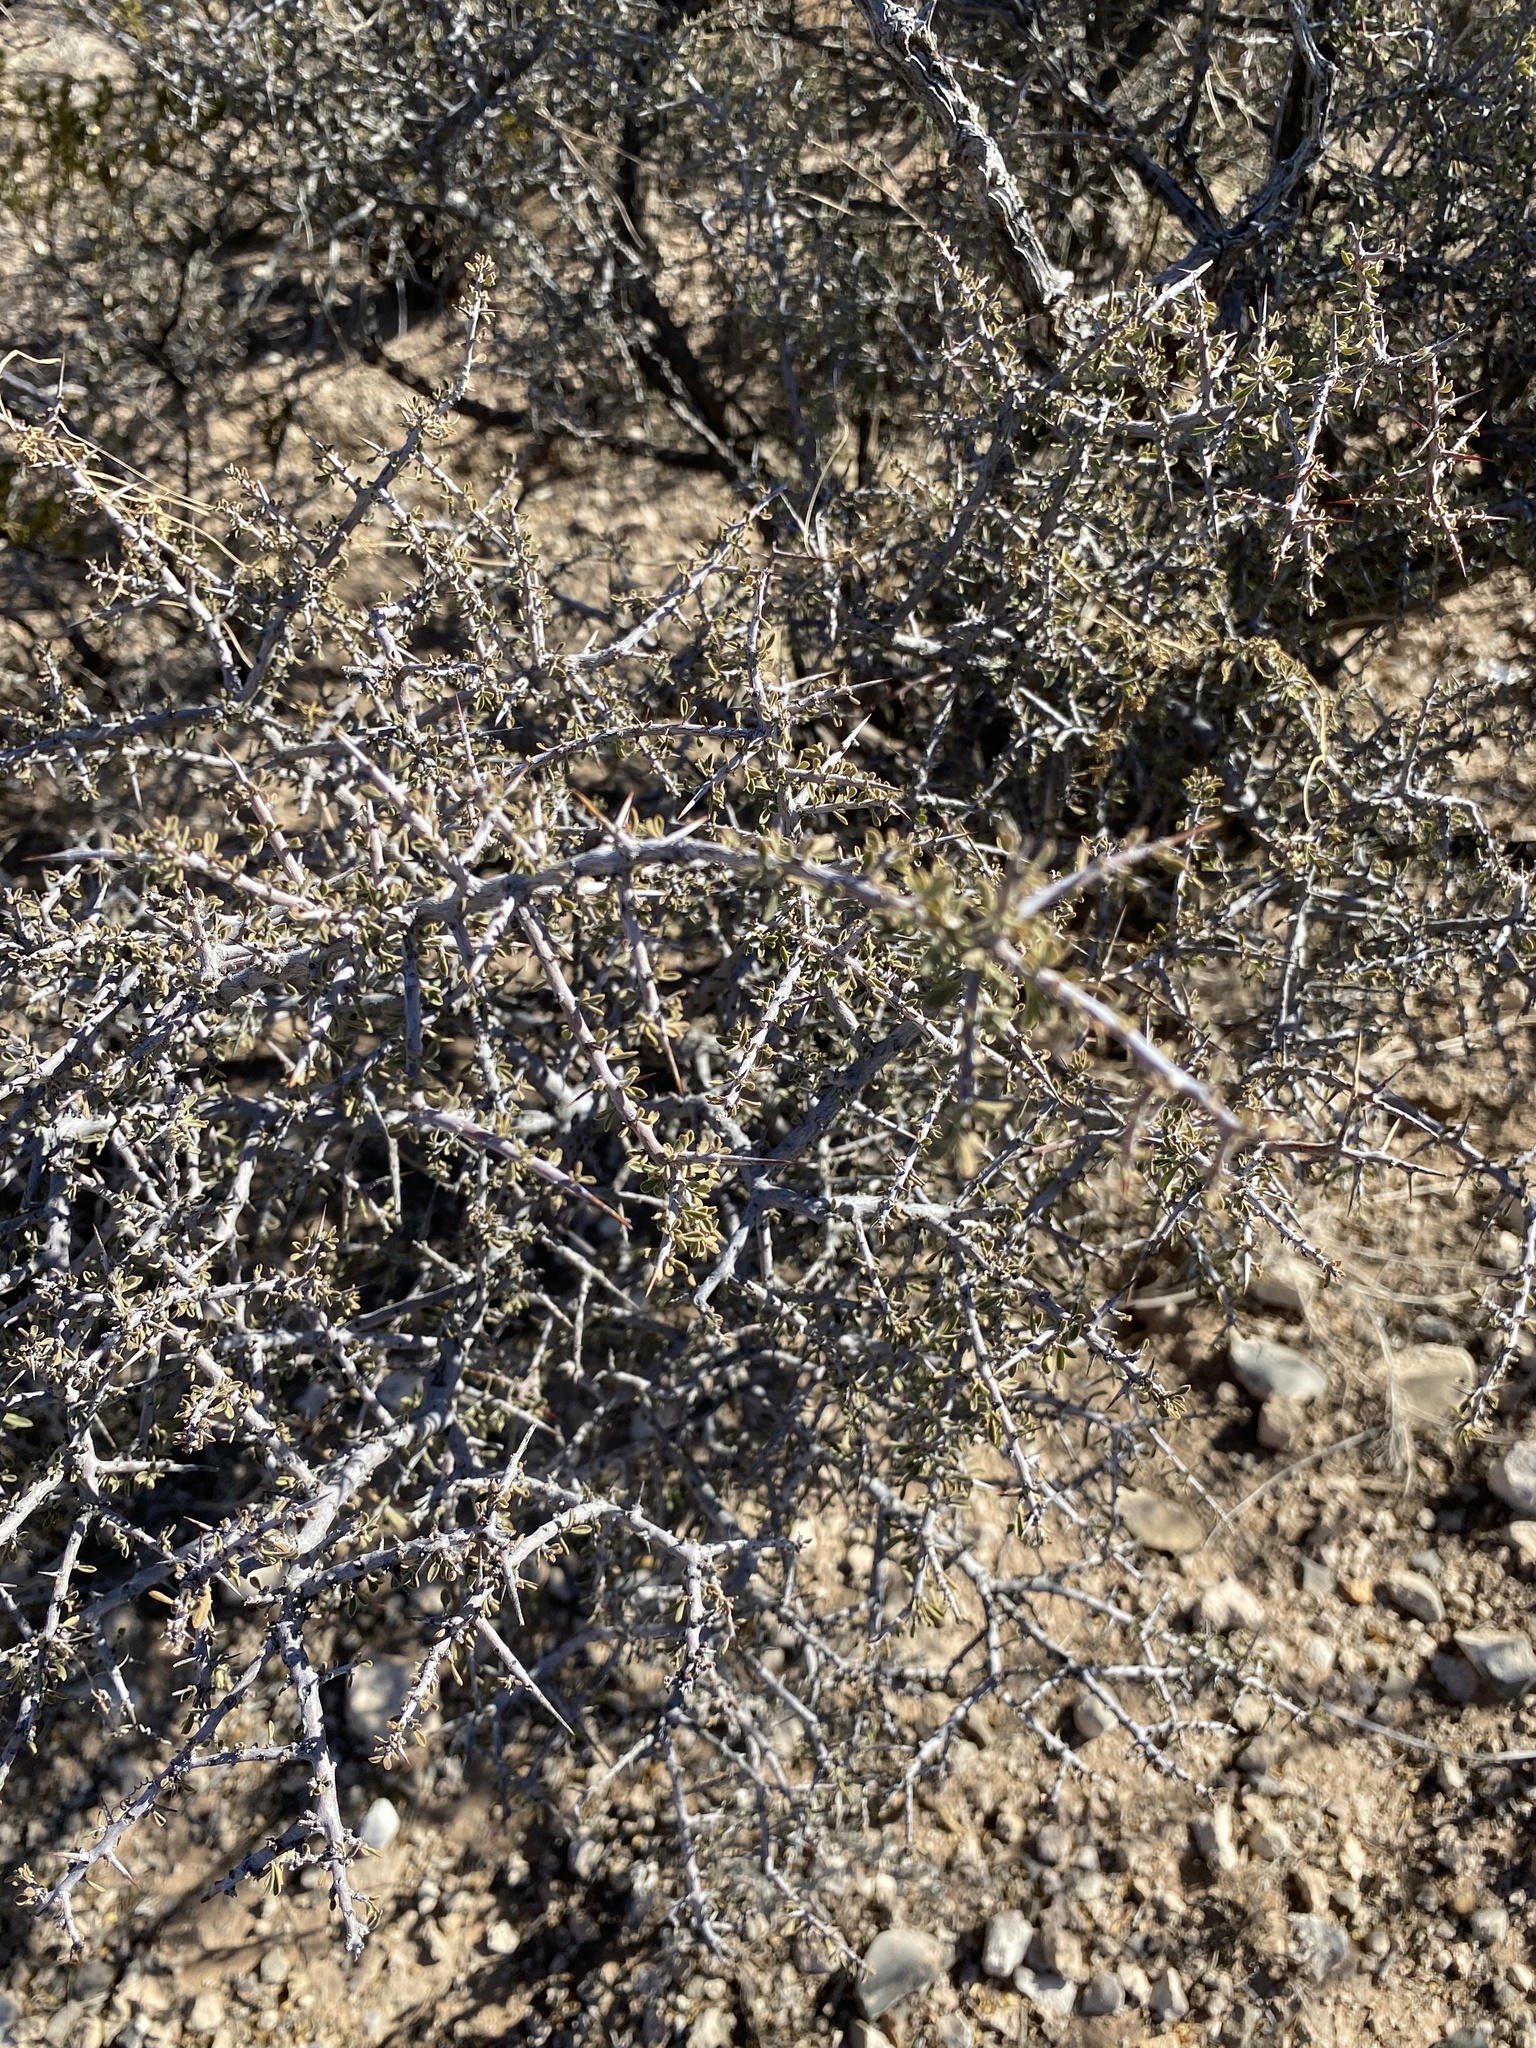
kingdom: Plantae
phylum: Tracheophyta
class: Magnoliopsida
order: Rosales
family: Rhamnaceae
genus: Condalia
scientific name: Condalia warnockii
